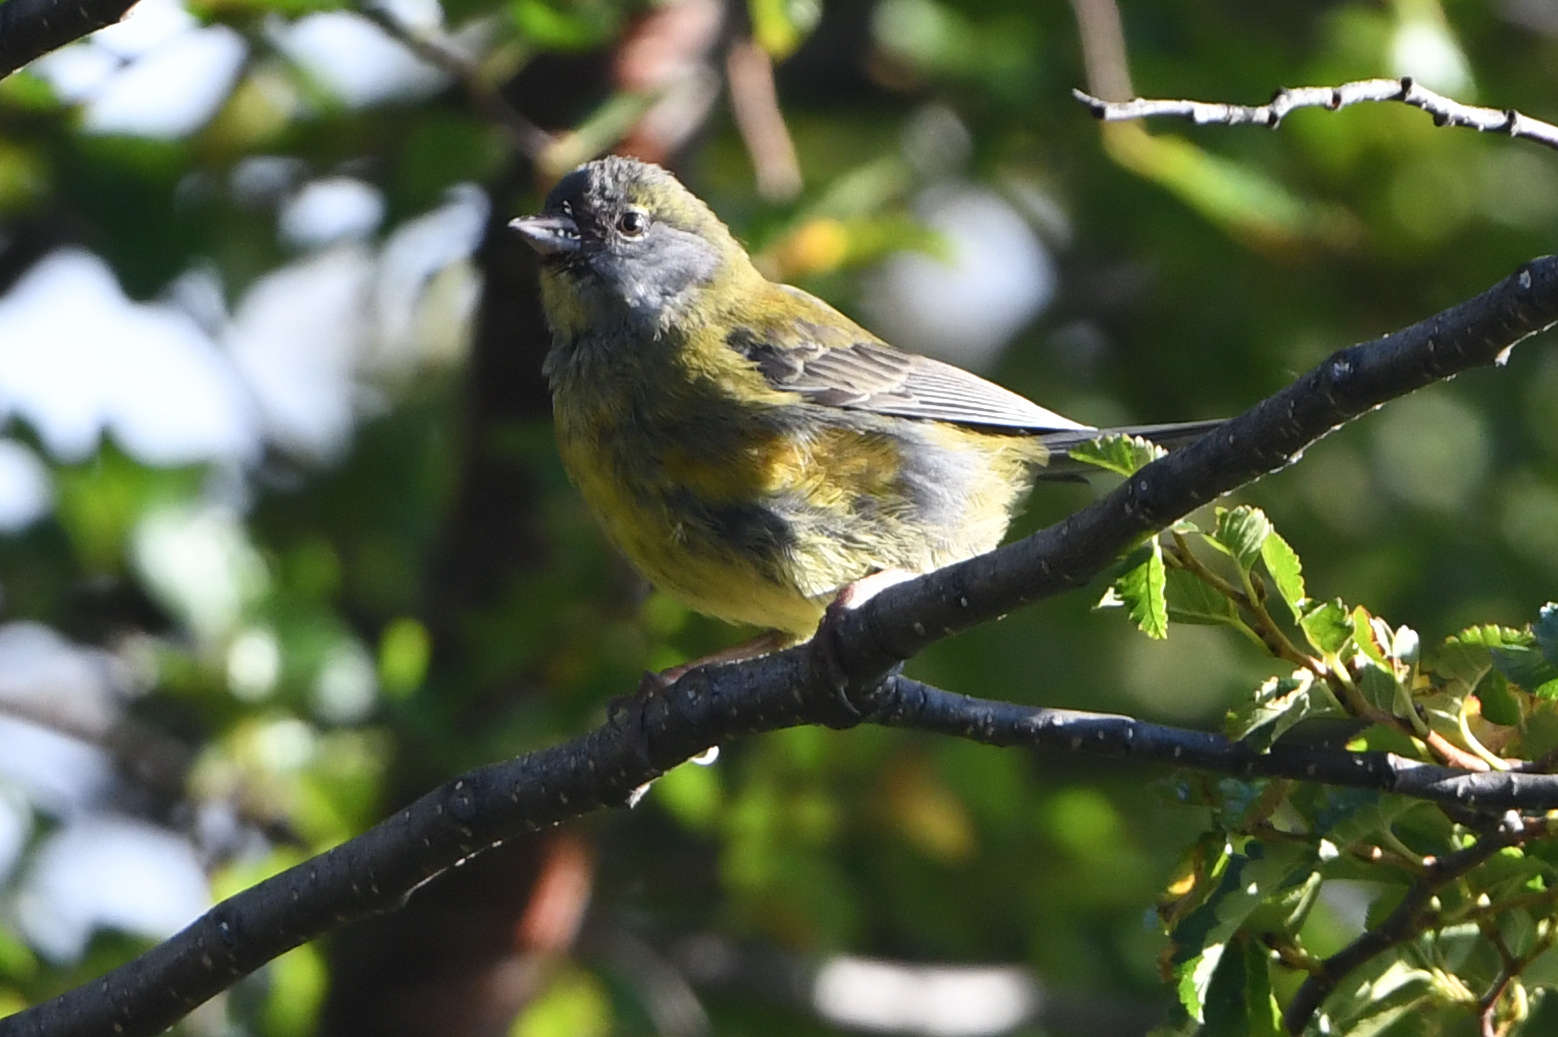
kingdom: Animalia
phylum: Chordata
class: Aves
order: Passeriformes
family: Thraupidae
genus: Phrygilus
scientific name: Phrygilus patagonicus
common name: Patagonian sierra finch
